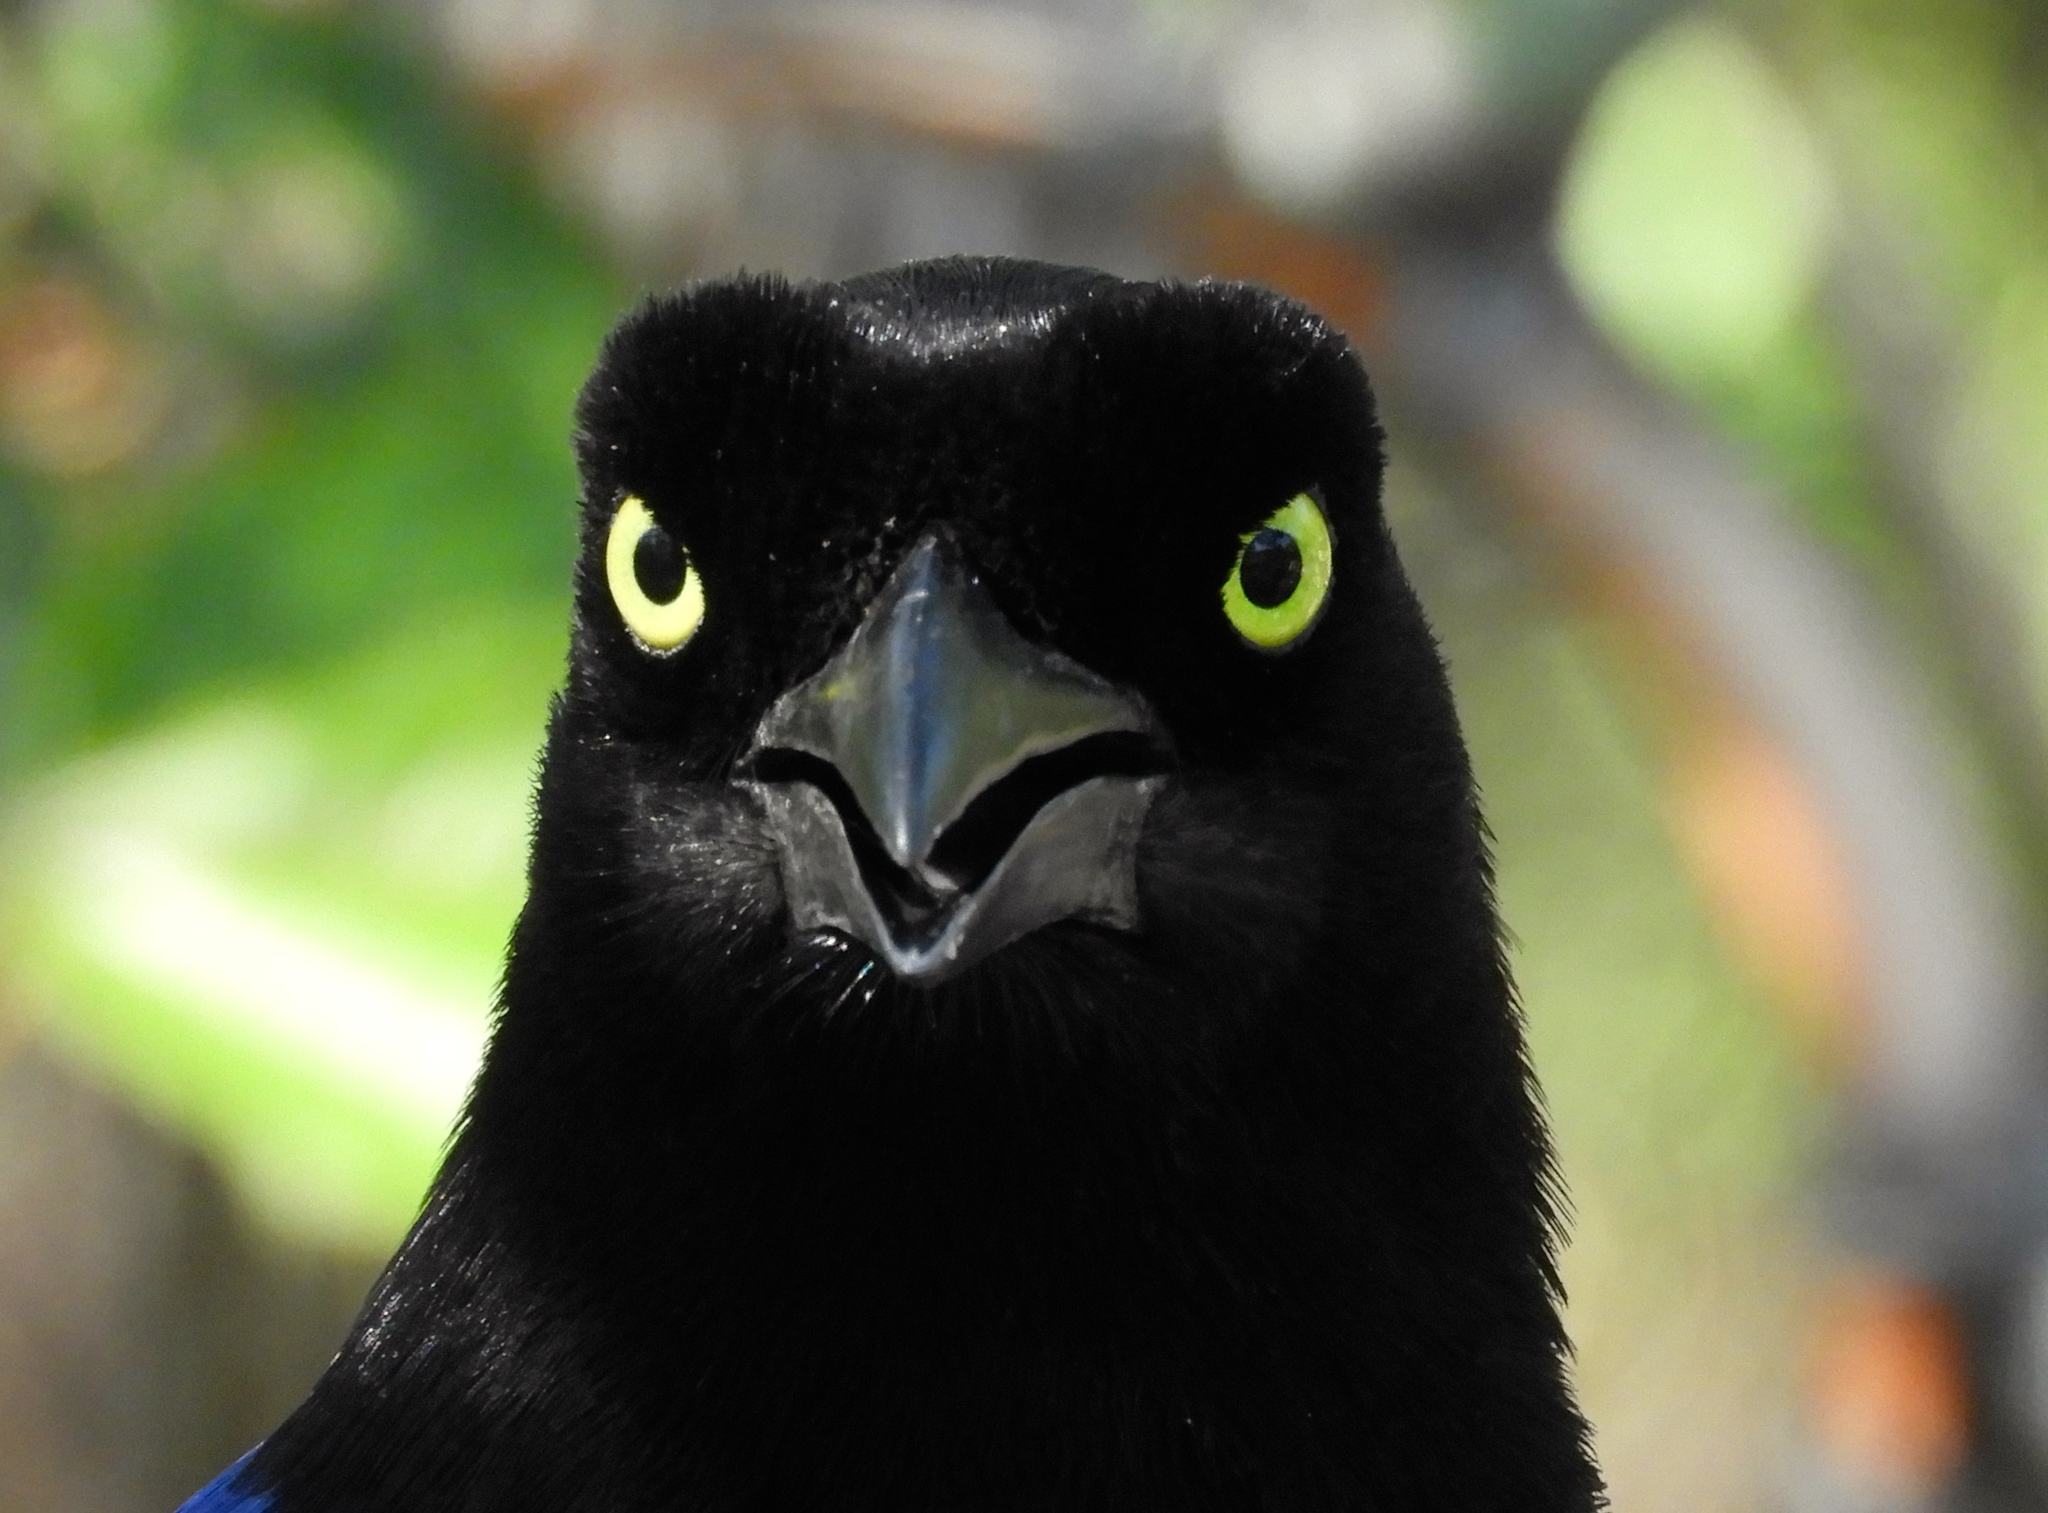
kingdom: Animalia
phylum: Chordata
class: Aves
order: Passeriformes
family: Corvidae
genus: Cyanocorax
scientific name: Cyanocorax beecheii
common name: Purplish-backed jay
